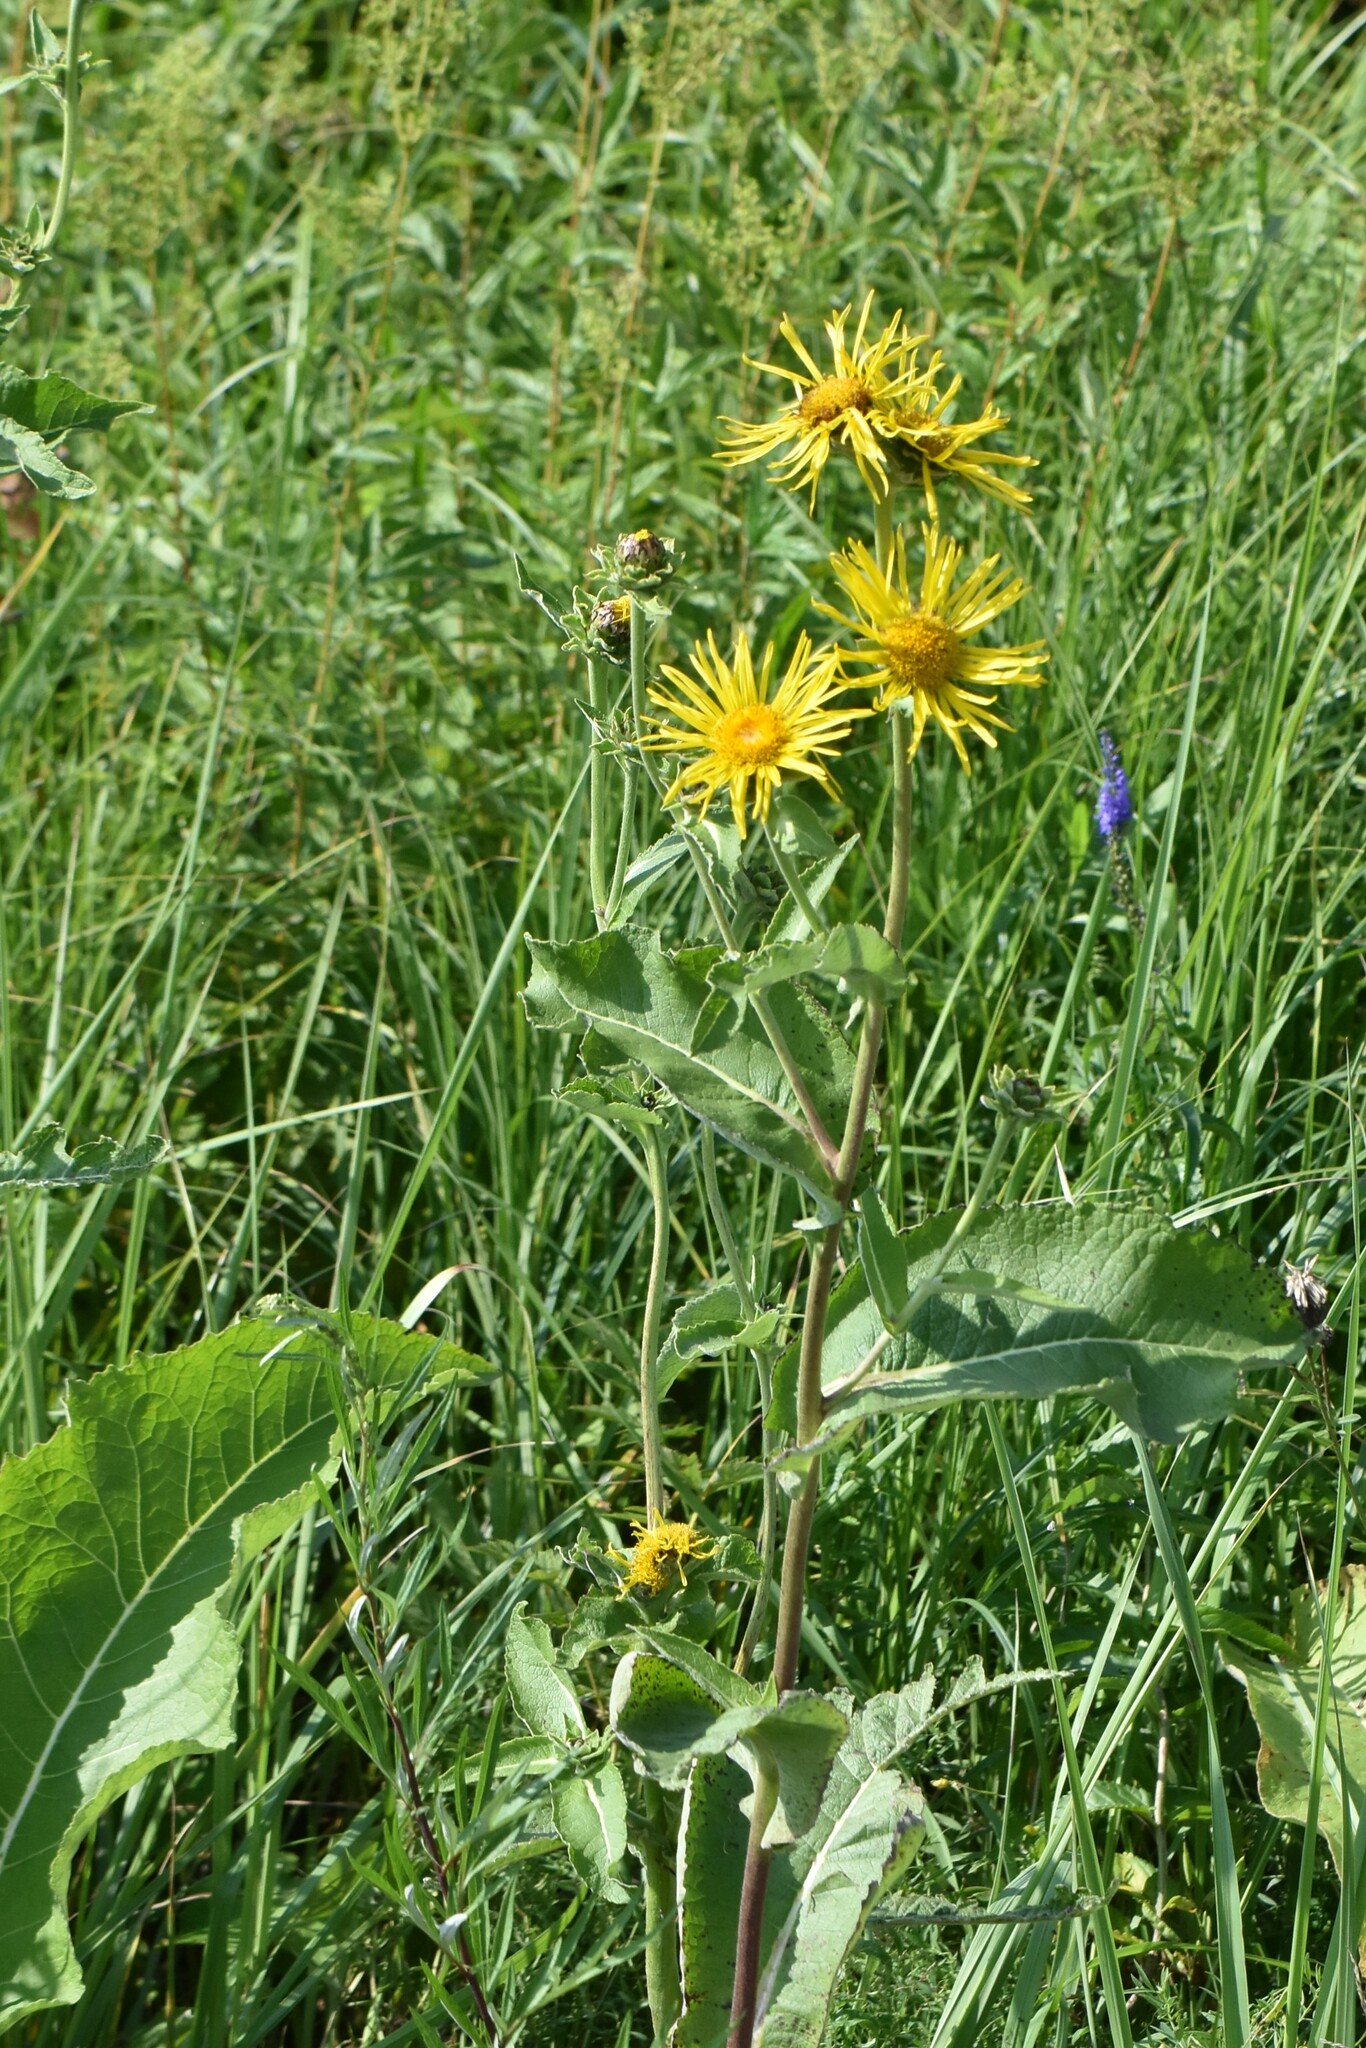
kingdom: Plantae
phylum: Tracheophyta
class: Magnoliopsida
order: Asterales
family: Asteraceae
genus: Inula
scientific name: Inula helenium
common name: Elecampane
